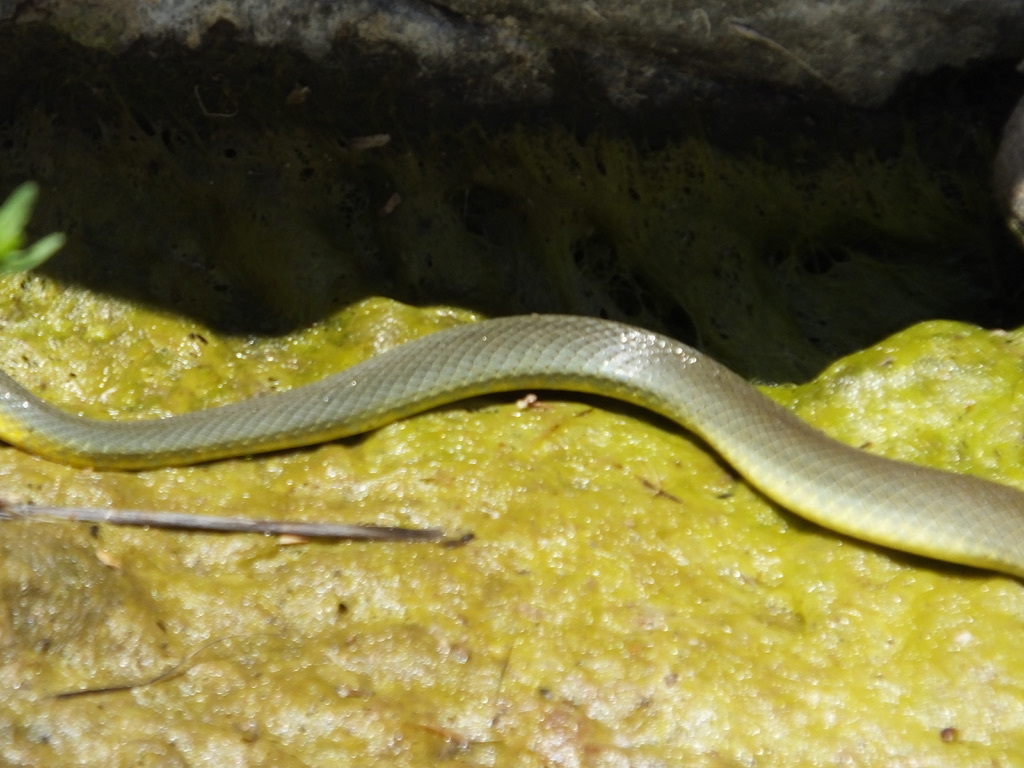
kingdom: Animalia
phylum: Chordata
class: Squamata
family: Colubridae
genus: Coluber
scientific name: Coluber constrictor
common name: Eastern racer
